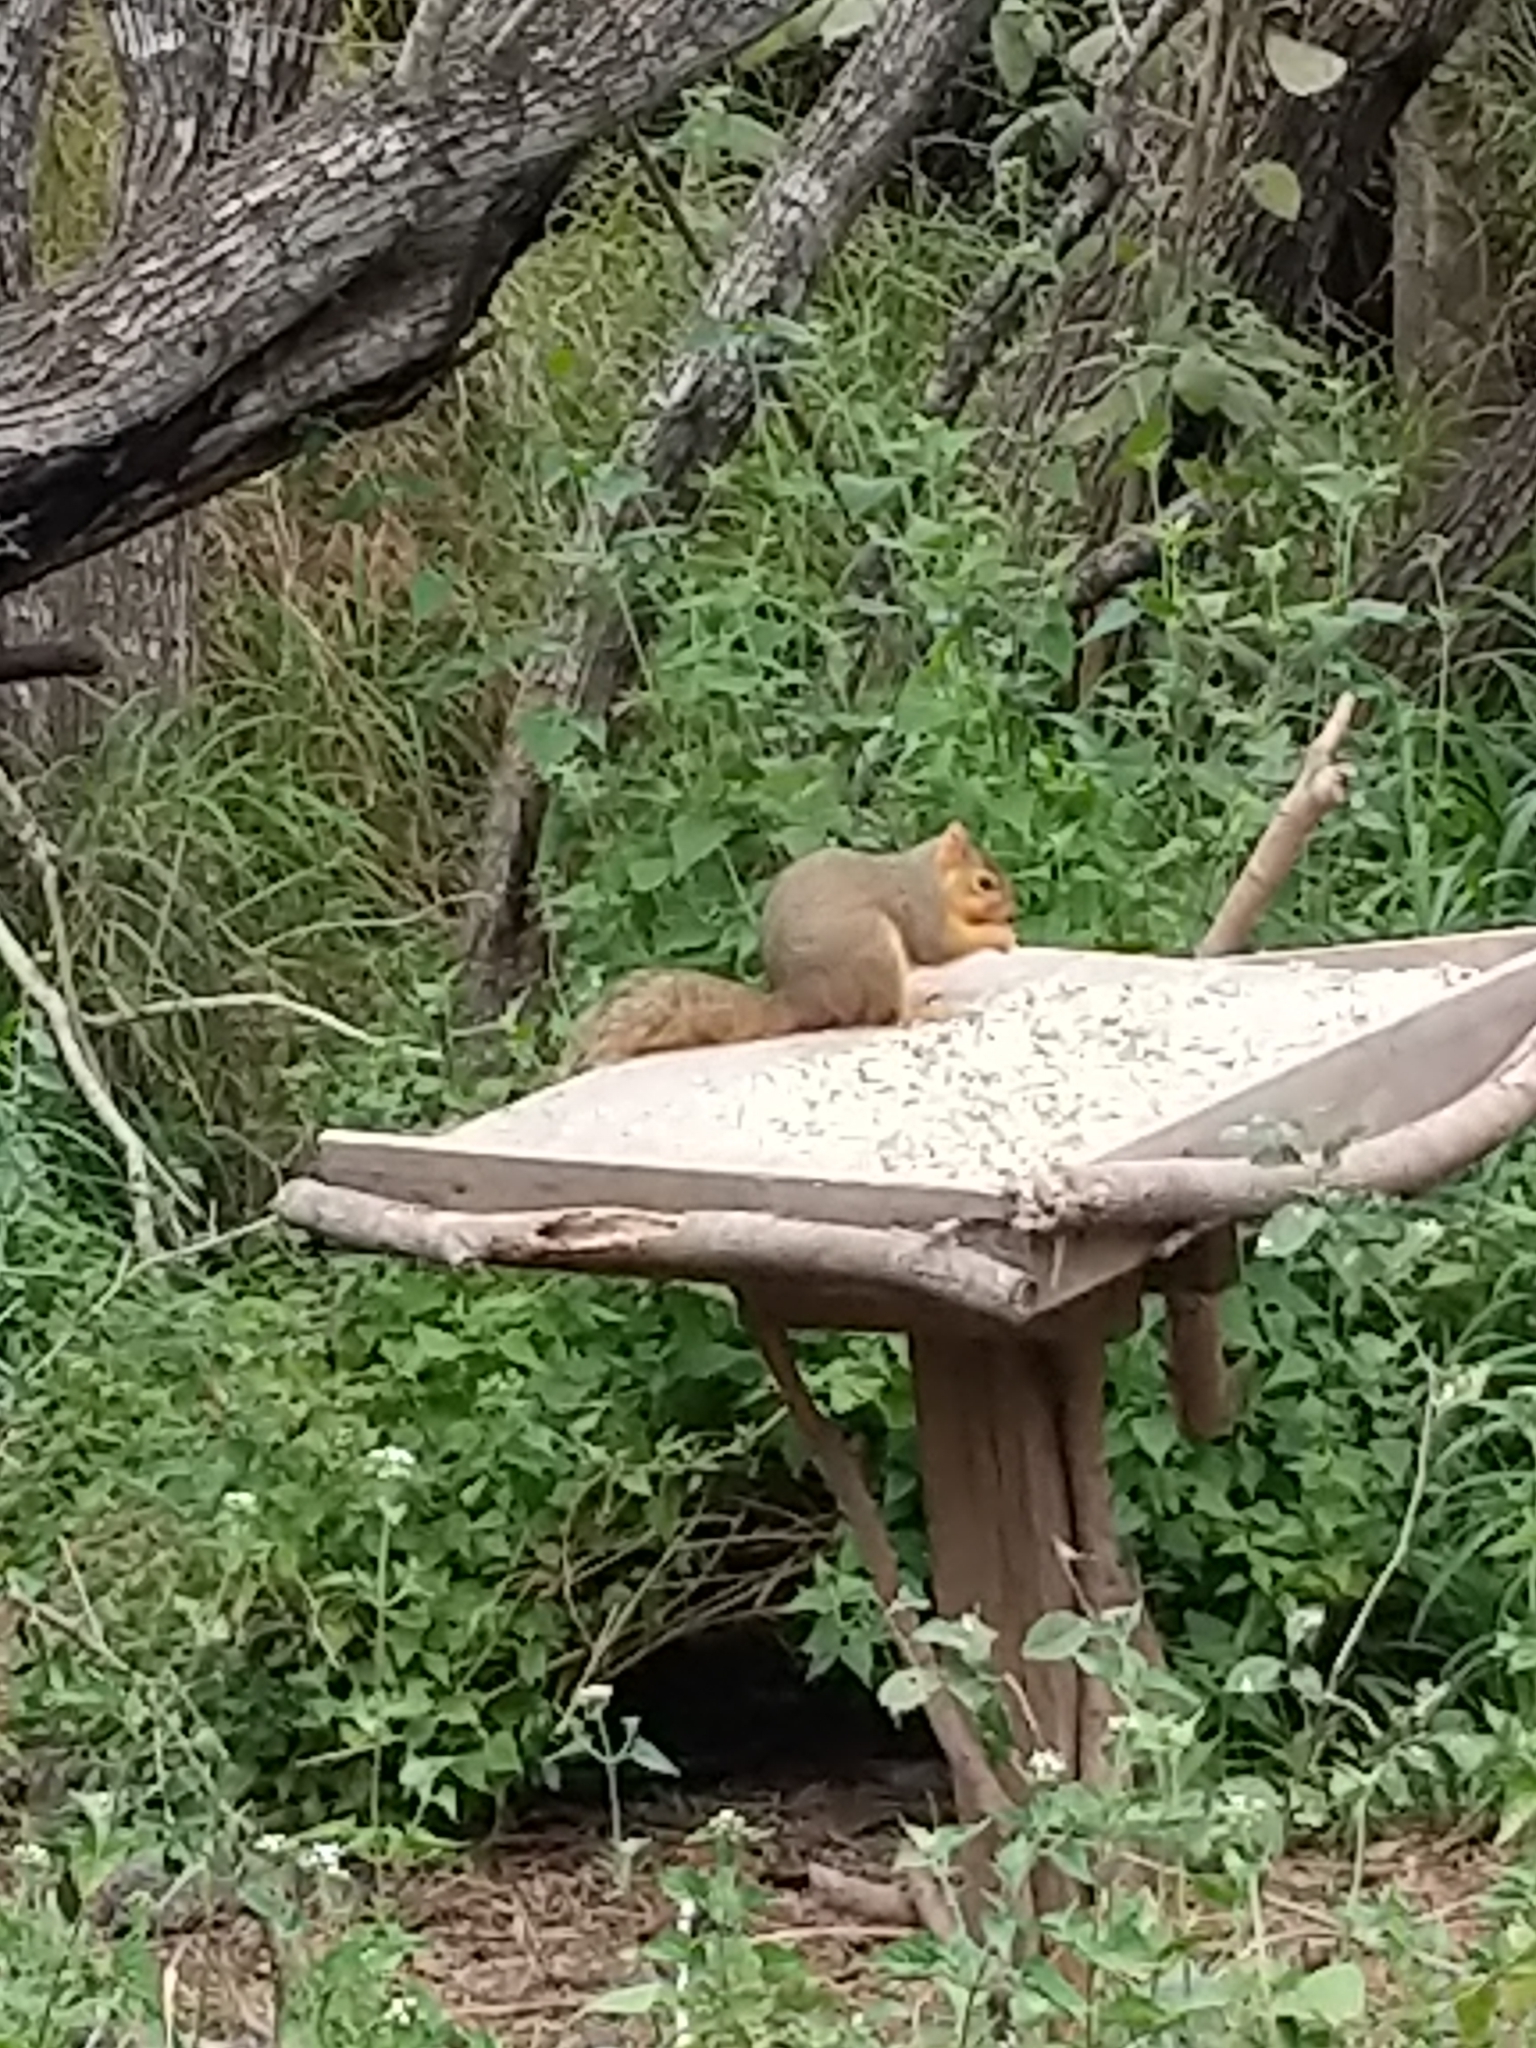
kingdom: Animalia
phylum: Chordata
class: Mammalia
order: Rodentia
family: Sciuridae
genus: Sciurus
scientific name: Sciurus niger
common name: Fox squirrel
